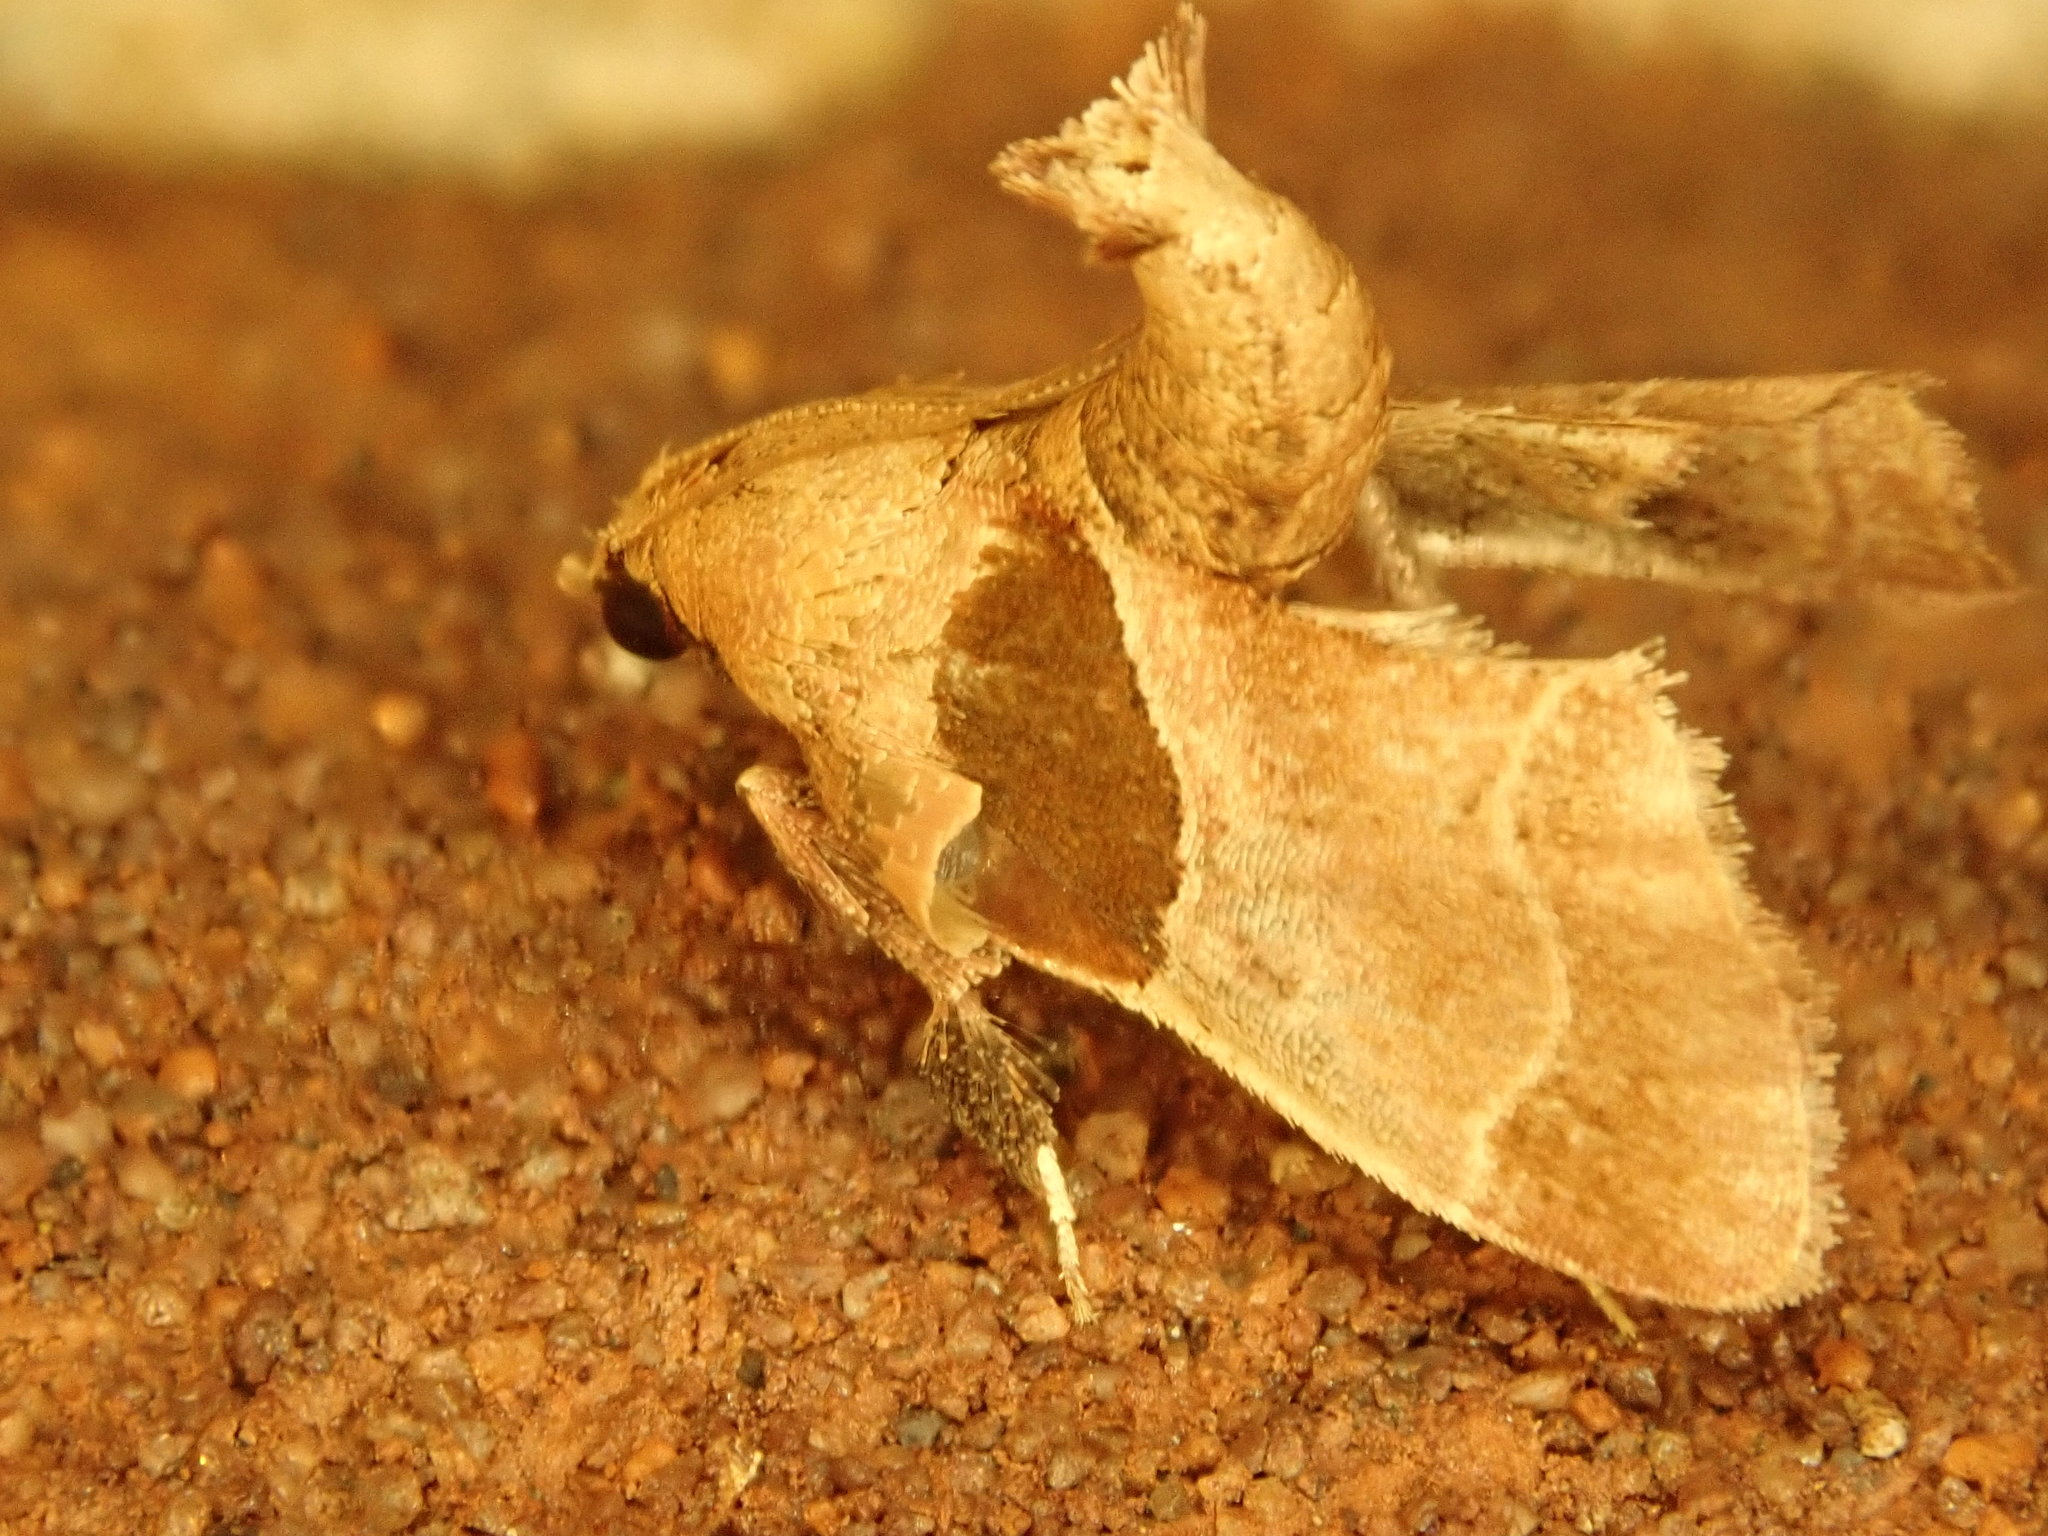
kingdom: Animalia
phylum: Arthropoda
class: Insecta
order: Lepidoptera
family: Pyralidae
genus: Tosale
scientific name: Tosale oviplagalis
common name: Dimorphic tosale moth
